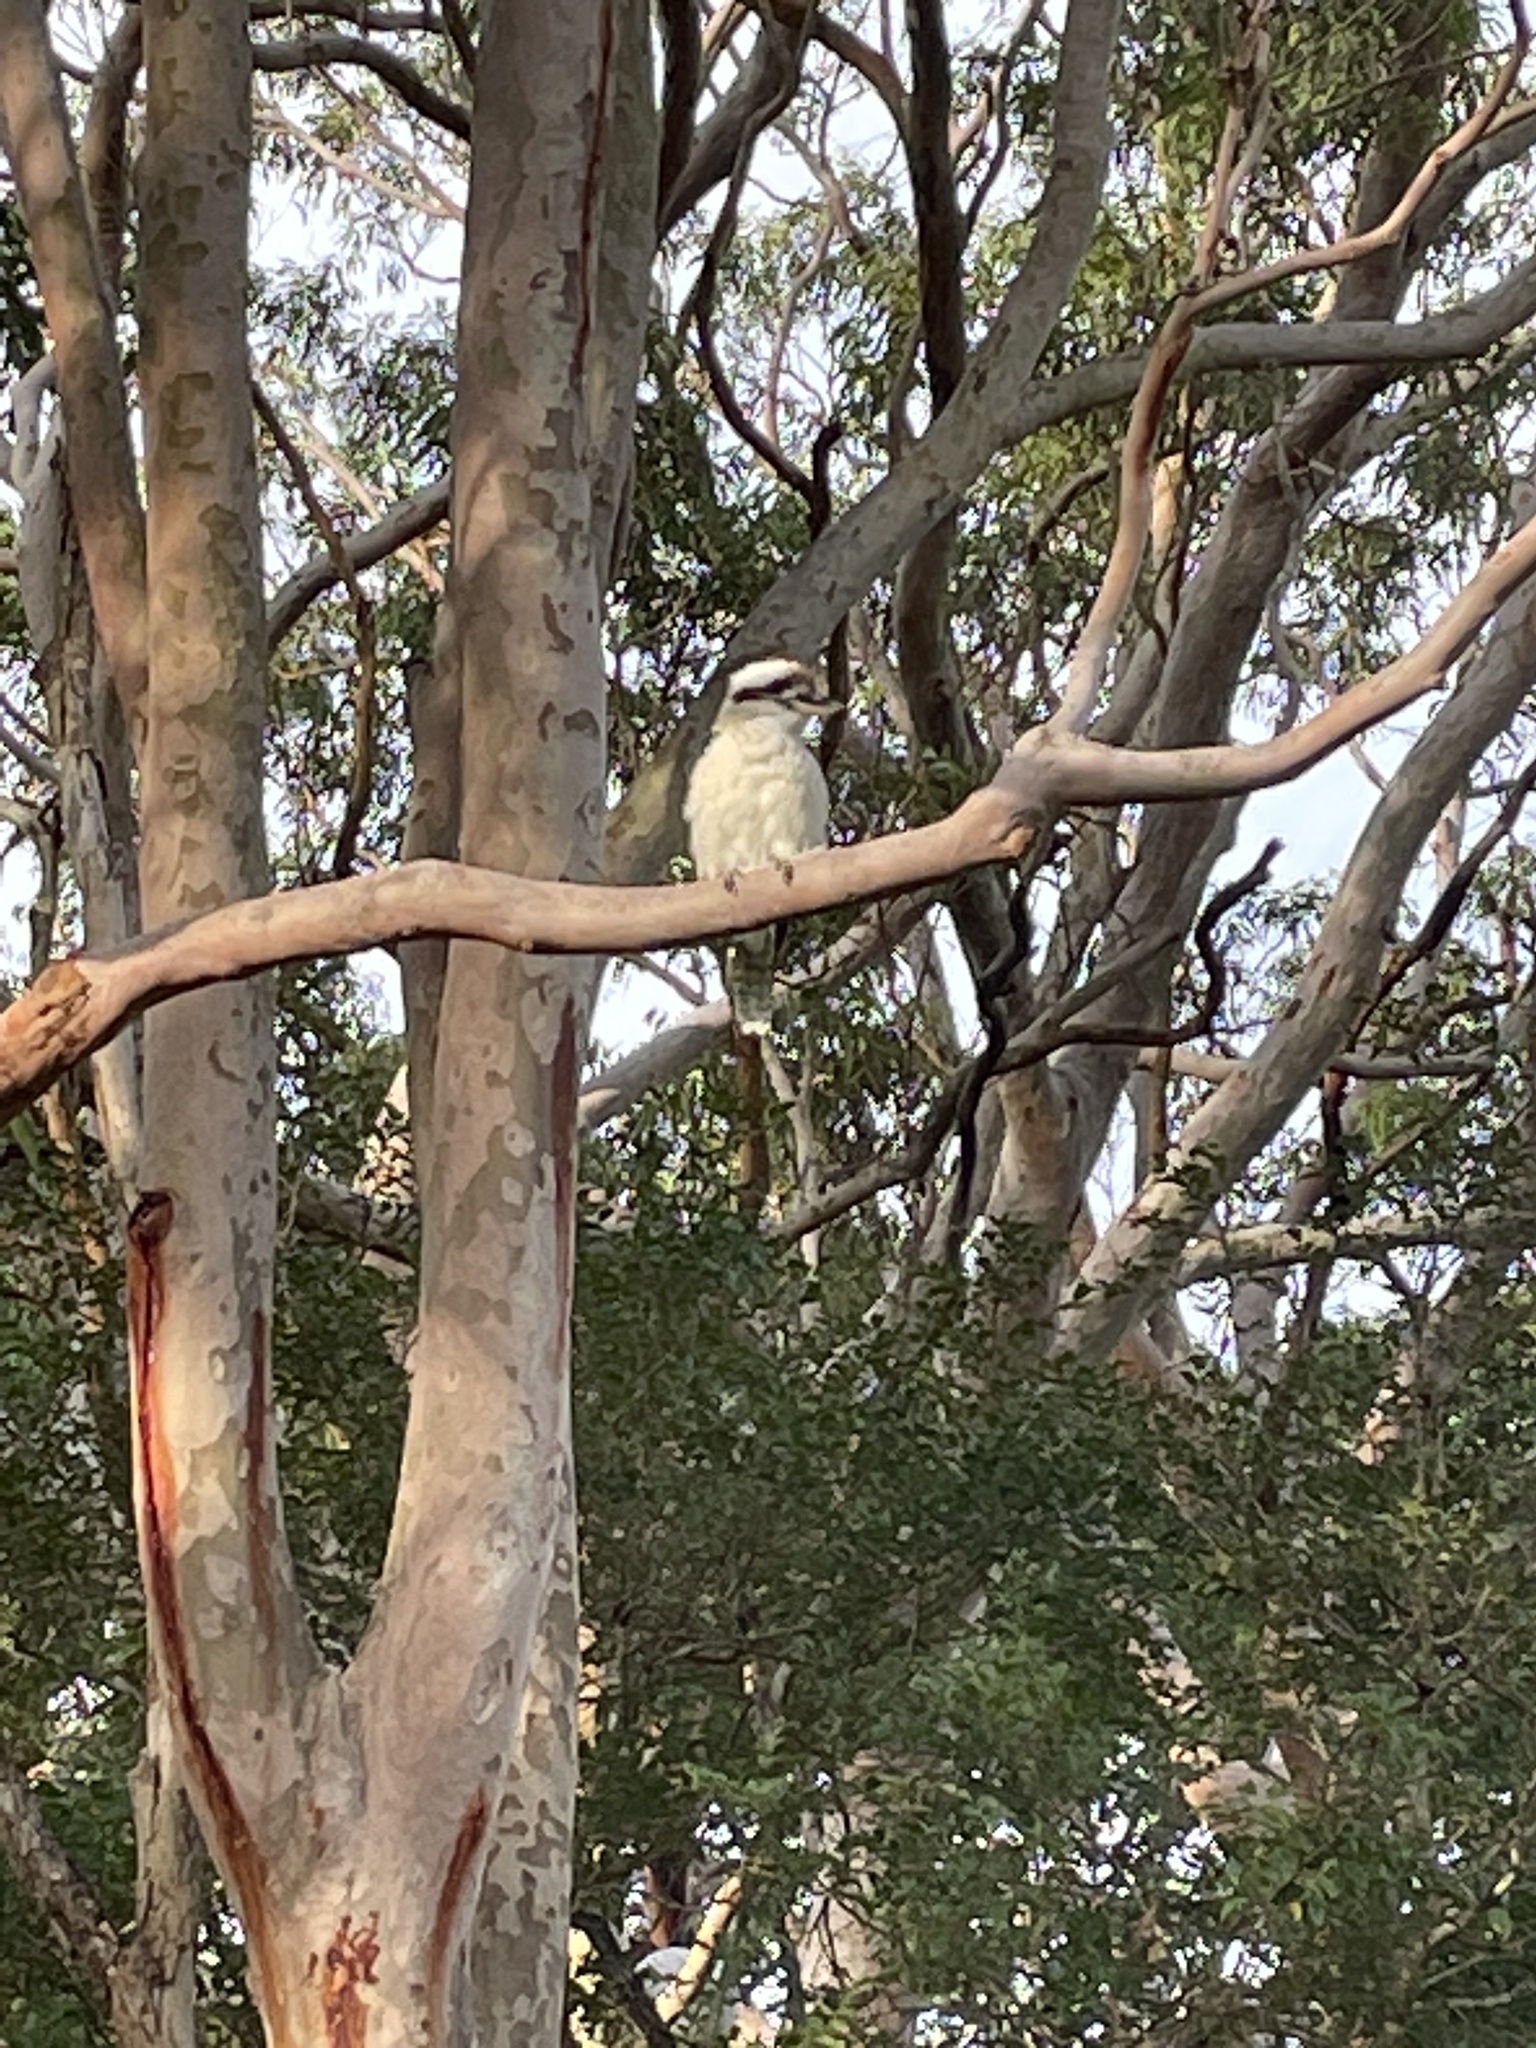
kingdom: Animalia
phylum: Chordata
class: Aves
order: Coraciiformes
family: Alcedinidae
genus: Dacelo
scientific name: Dacelo novaeguineae
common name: Laughing kookaburra
